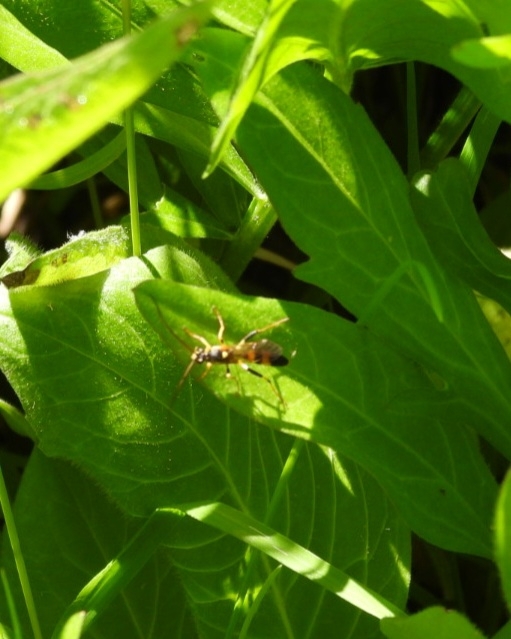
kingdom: Animalia
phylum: Arthropoda
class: Insecta
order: Hymenoptera
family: Ichneumonidae
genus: Amblyteles
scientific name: Amblyteles armatorius
